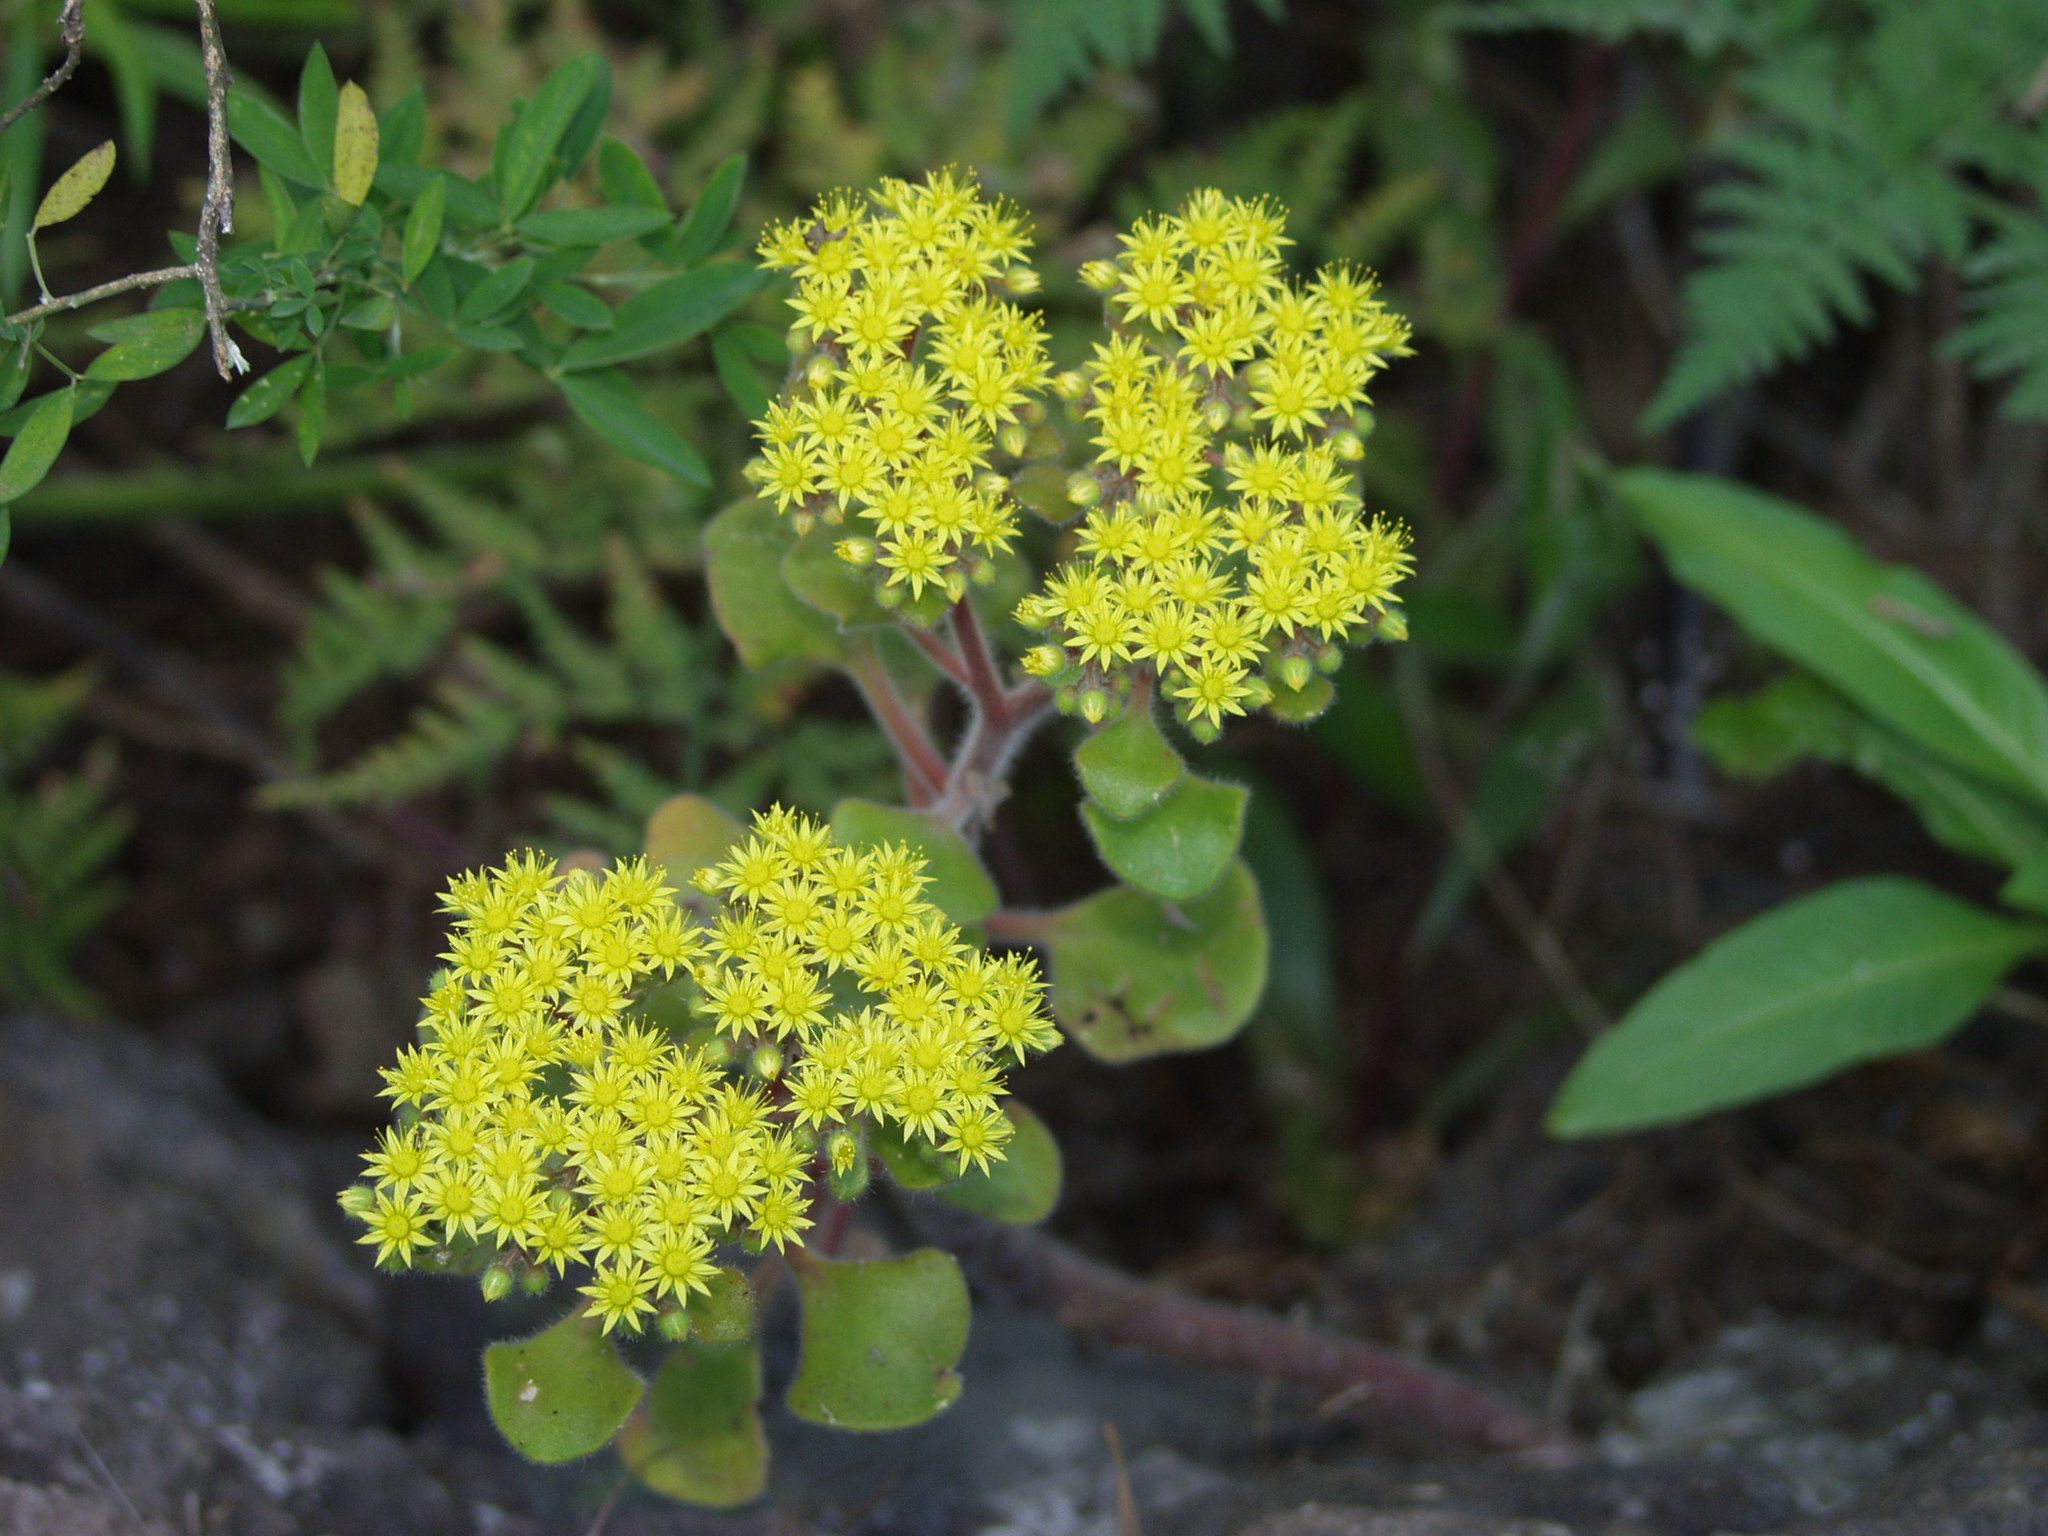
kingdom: Plantae
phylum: Tracheophyta
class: Magnoliopsida
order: Saxifragales
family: Crassulaceae
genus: Aichryson
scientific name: Aichryson laxum
